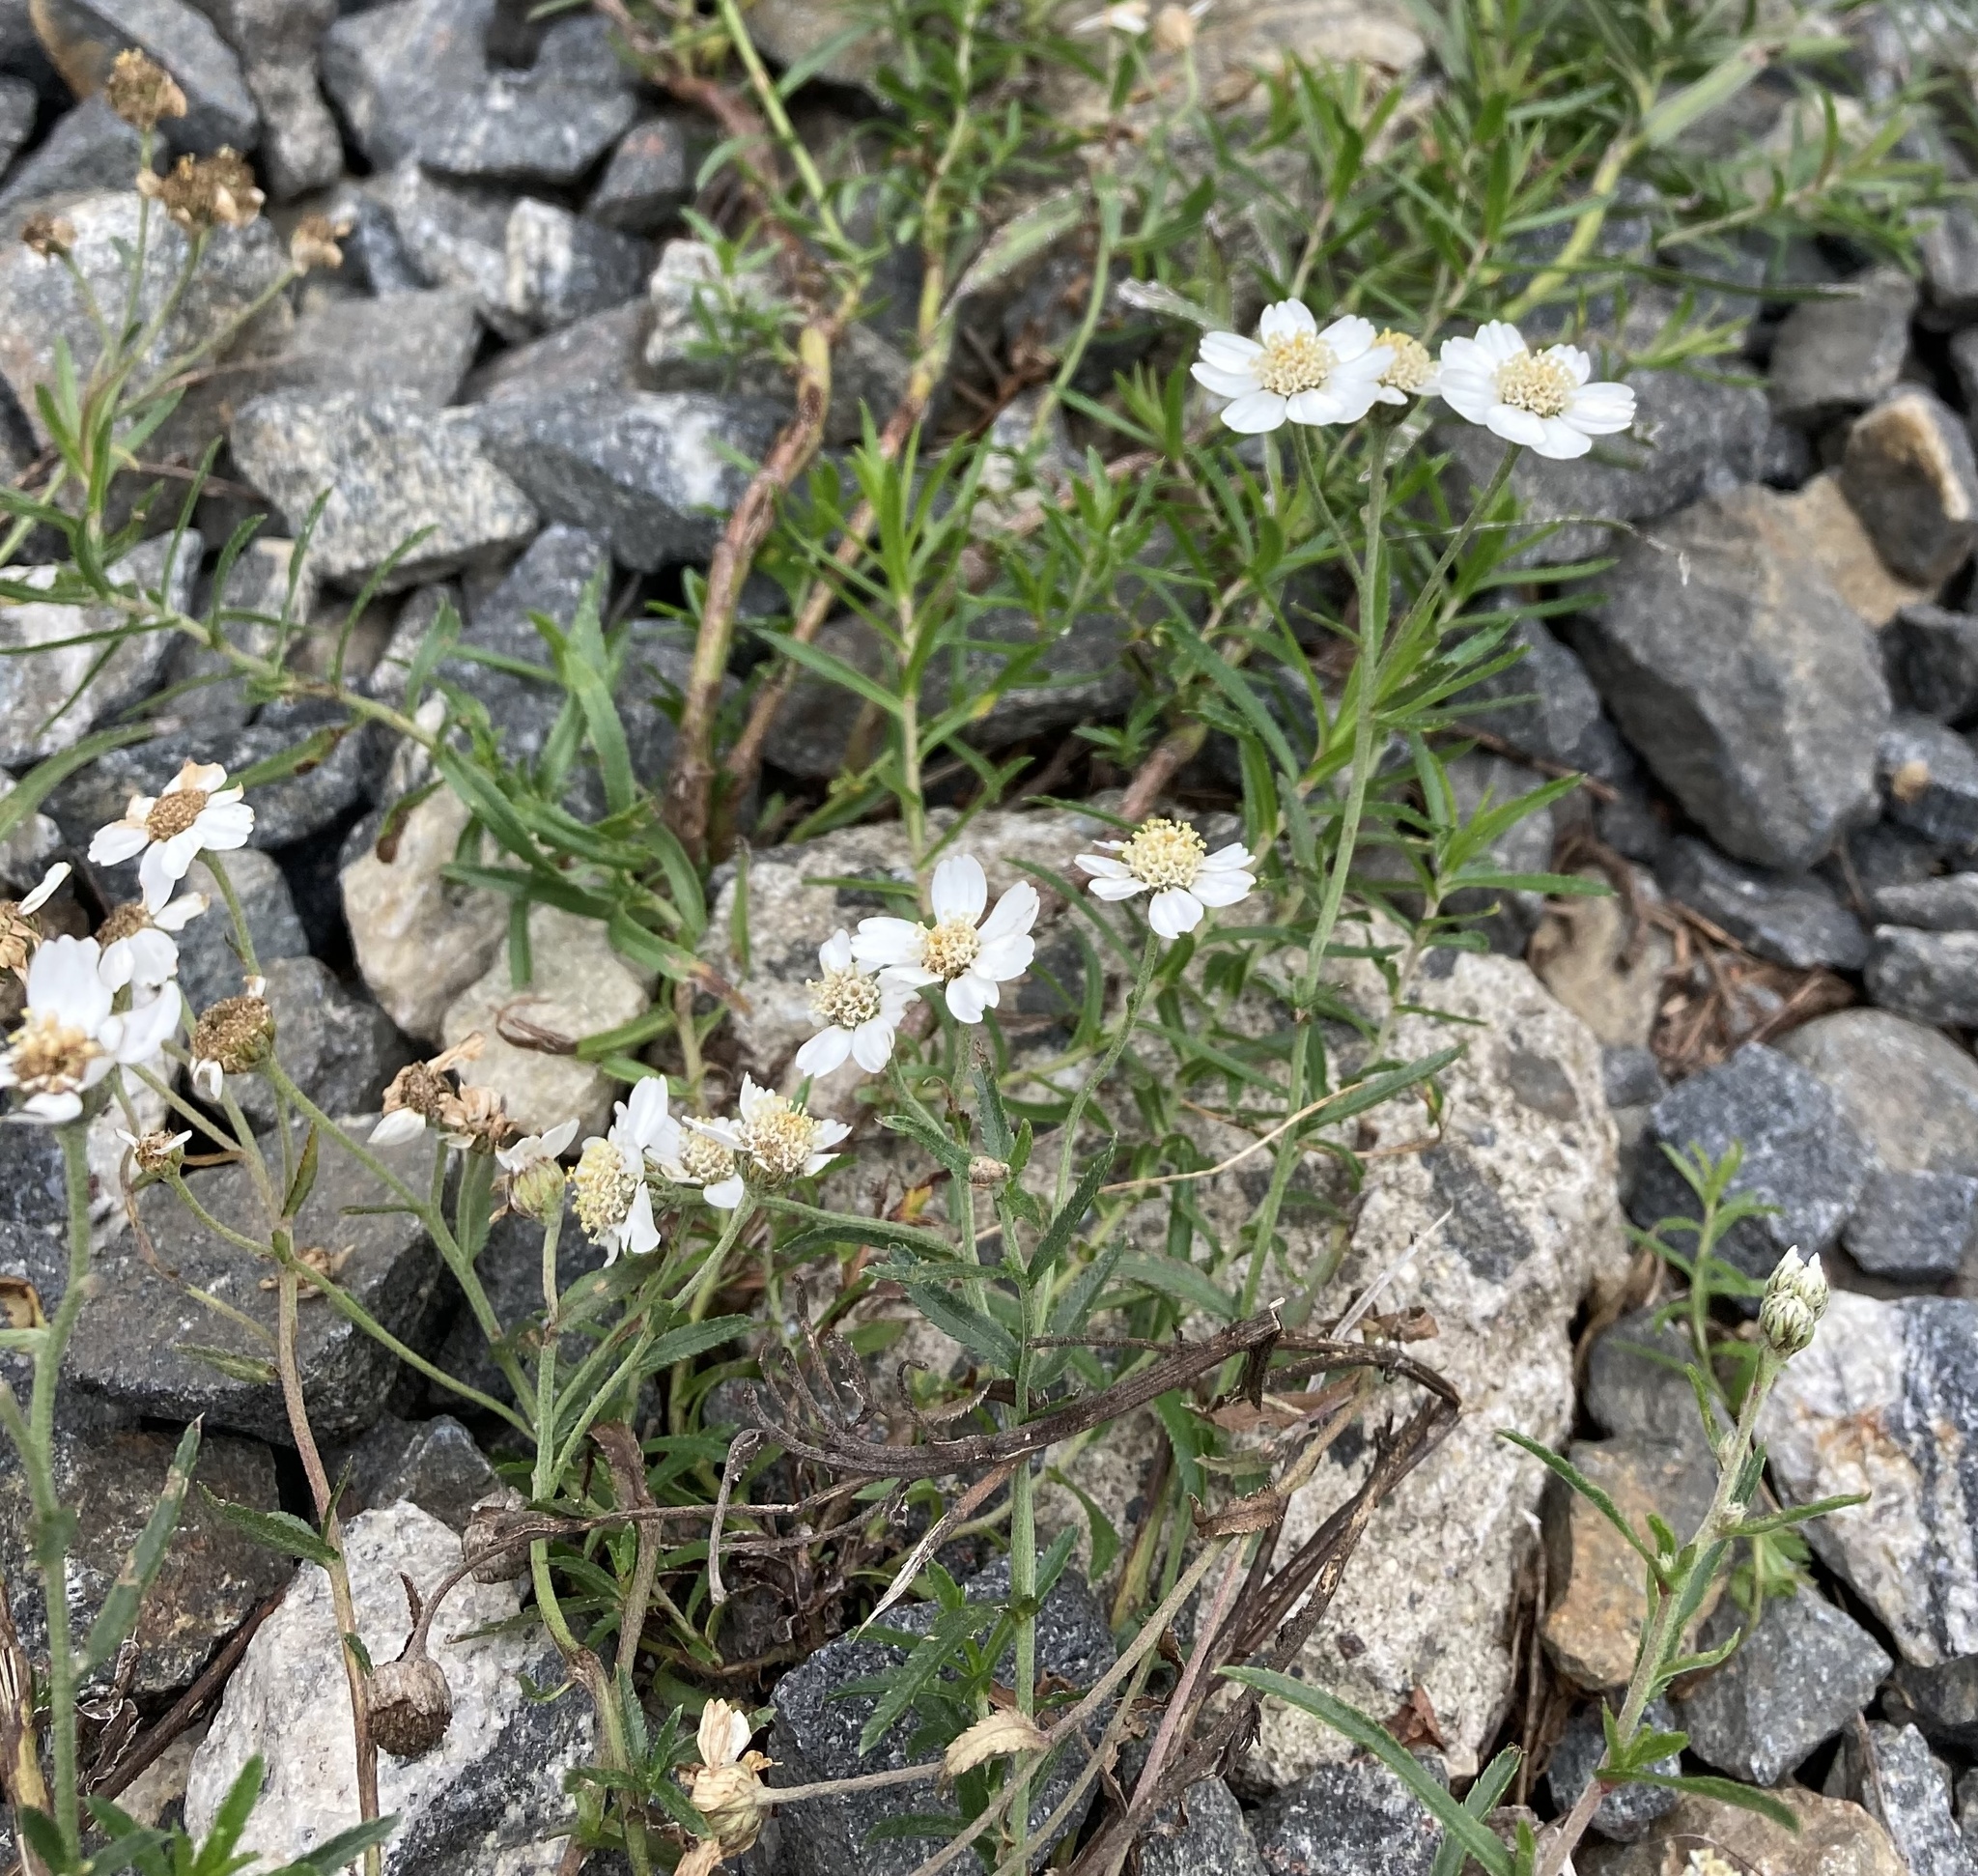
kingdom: Plantae
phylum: Tracheophyta
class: Magnoliopsida
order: Asterales
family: Asteraceae
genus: Achillea
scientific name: Achillea ptarmica
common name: Sneezeweed
